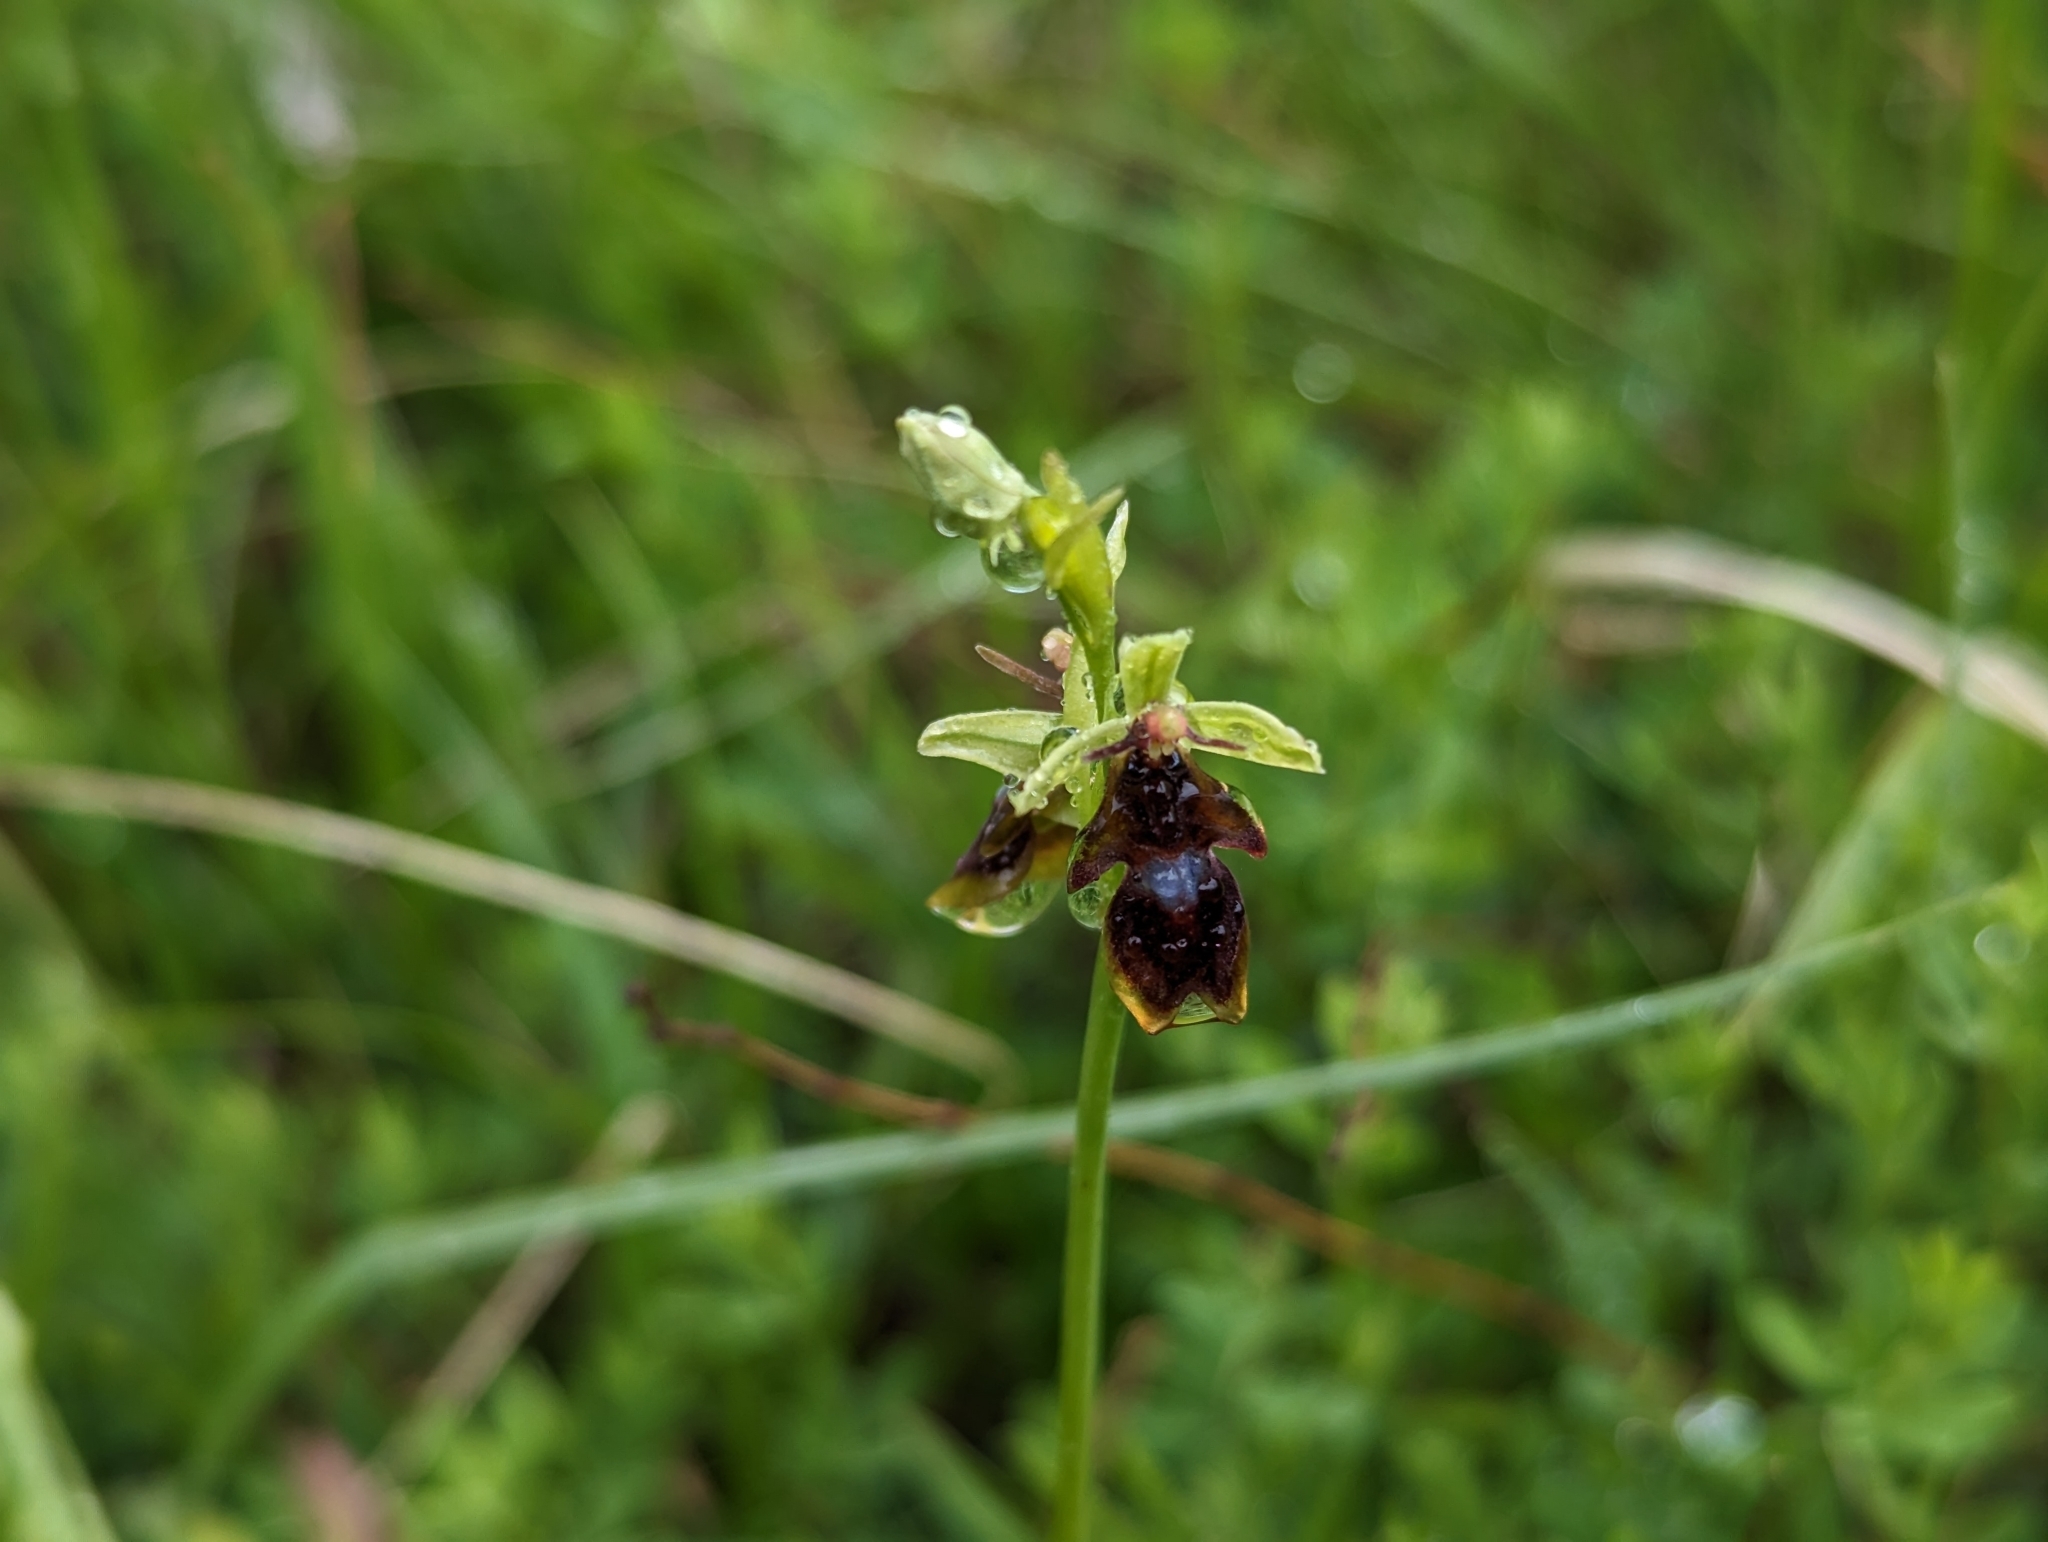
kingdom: Plantae
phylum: Tracheophyta
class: Liliopsida
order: Asparagales
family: Orchidaceae
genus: Ophrys
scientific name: Ophrys insectifera
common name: Fly orchid
